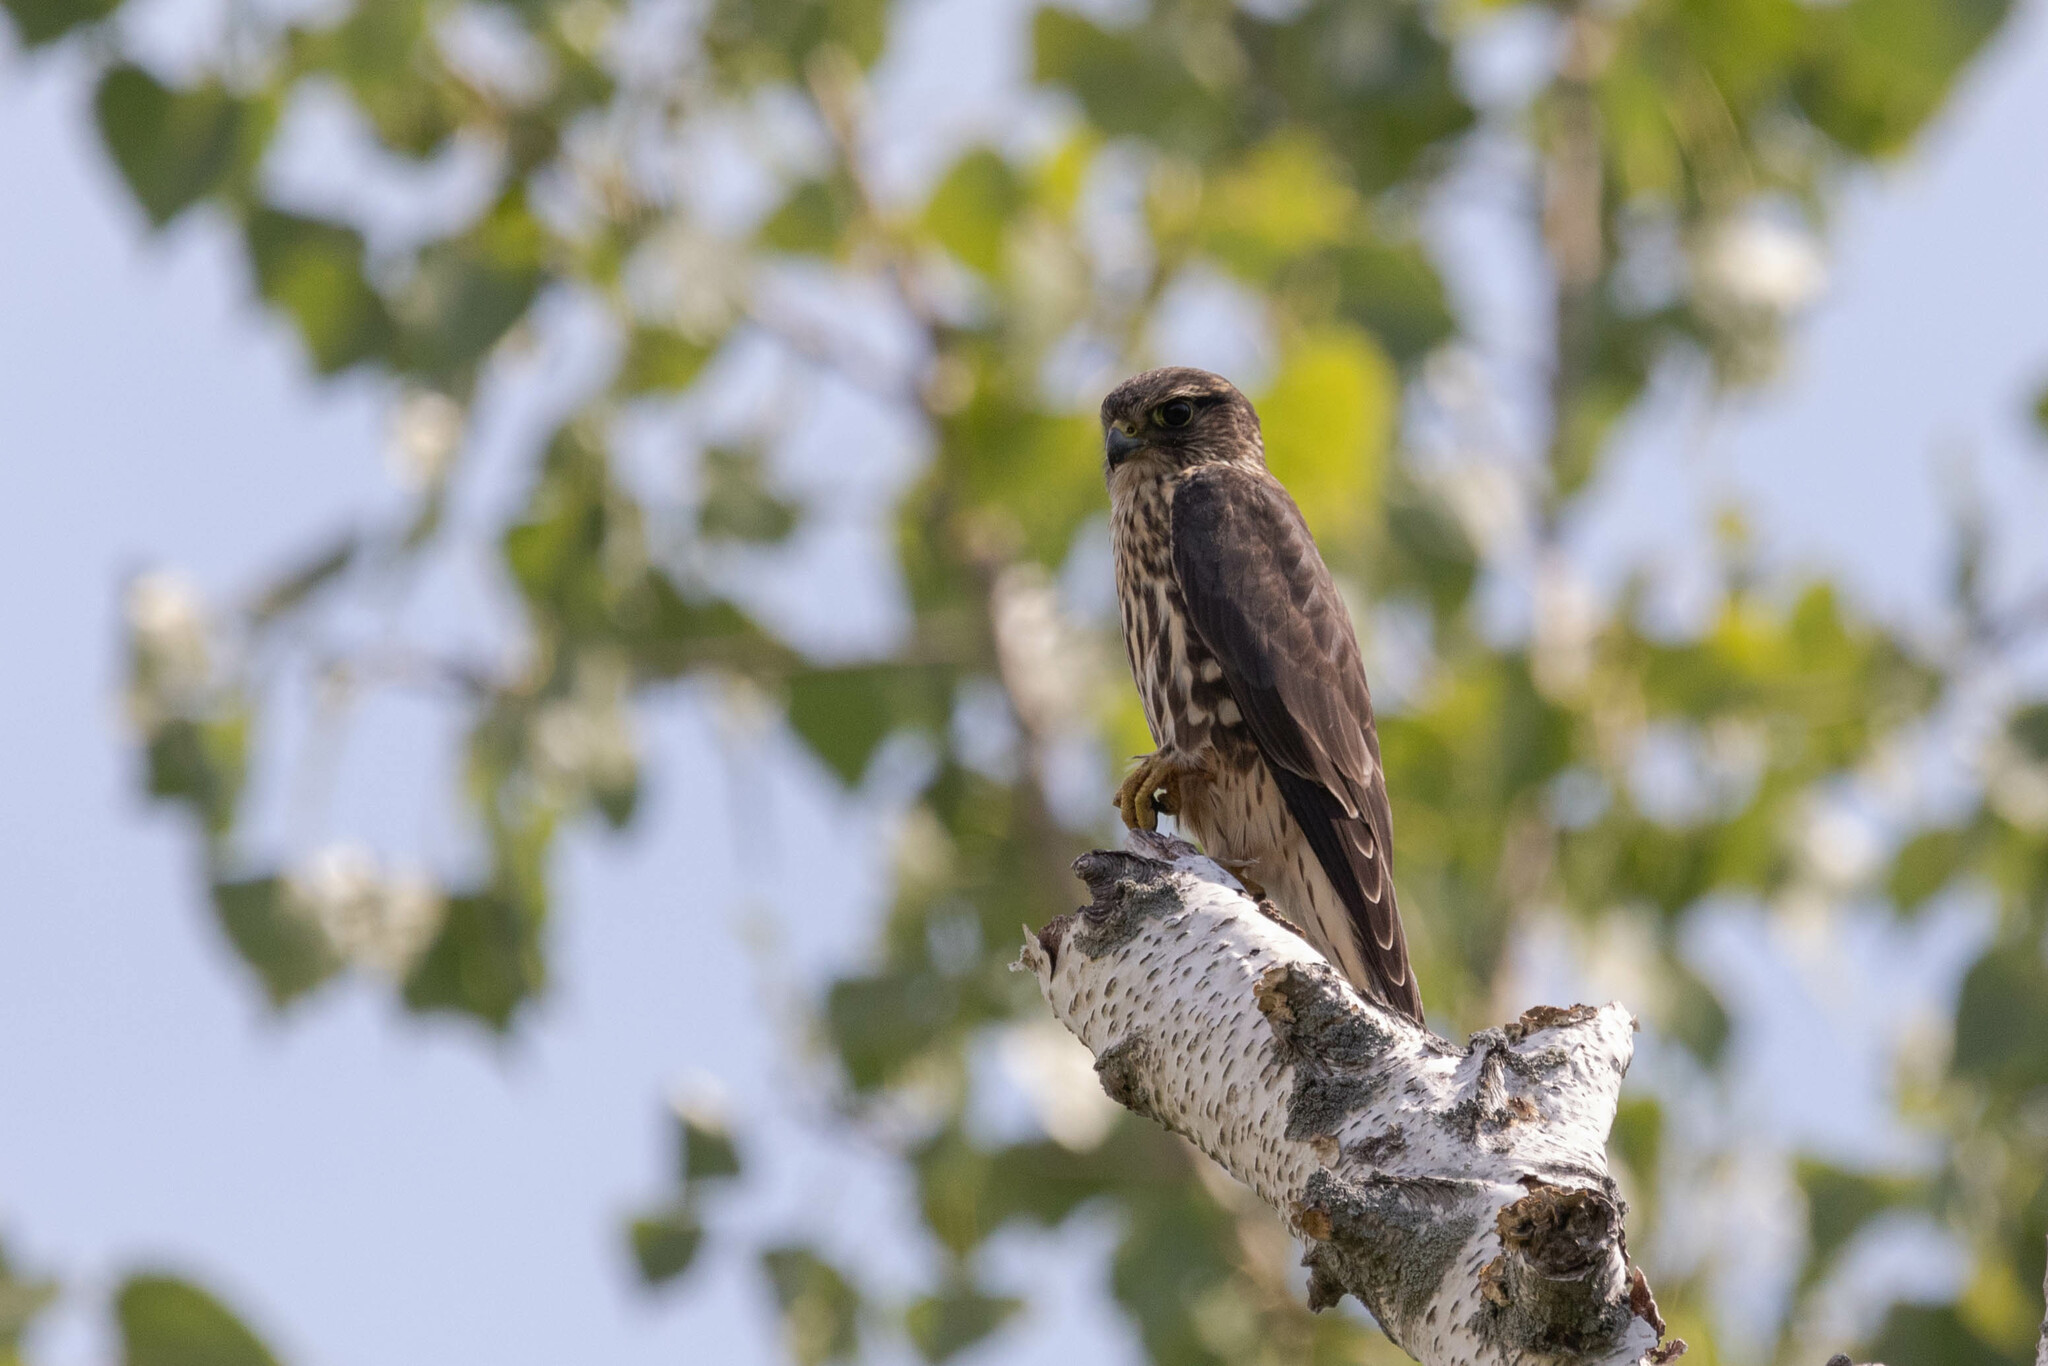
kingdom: Animalia
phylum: Chordata
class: Aves
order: Falconiformes
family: Falconidae
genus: Falco
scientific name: Falco columbarius
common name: Merlin
